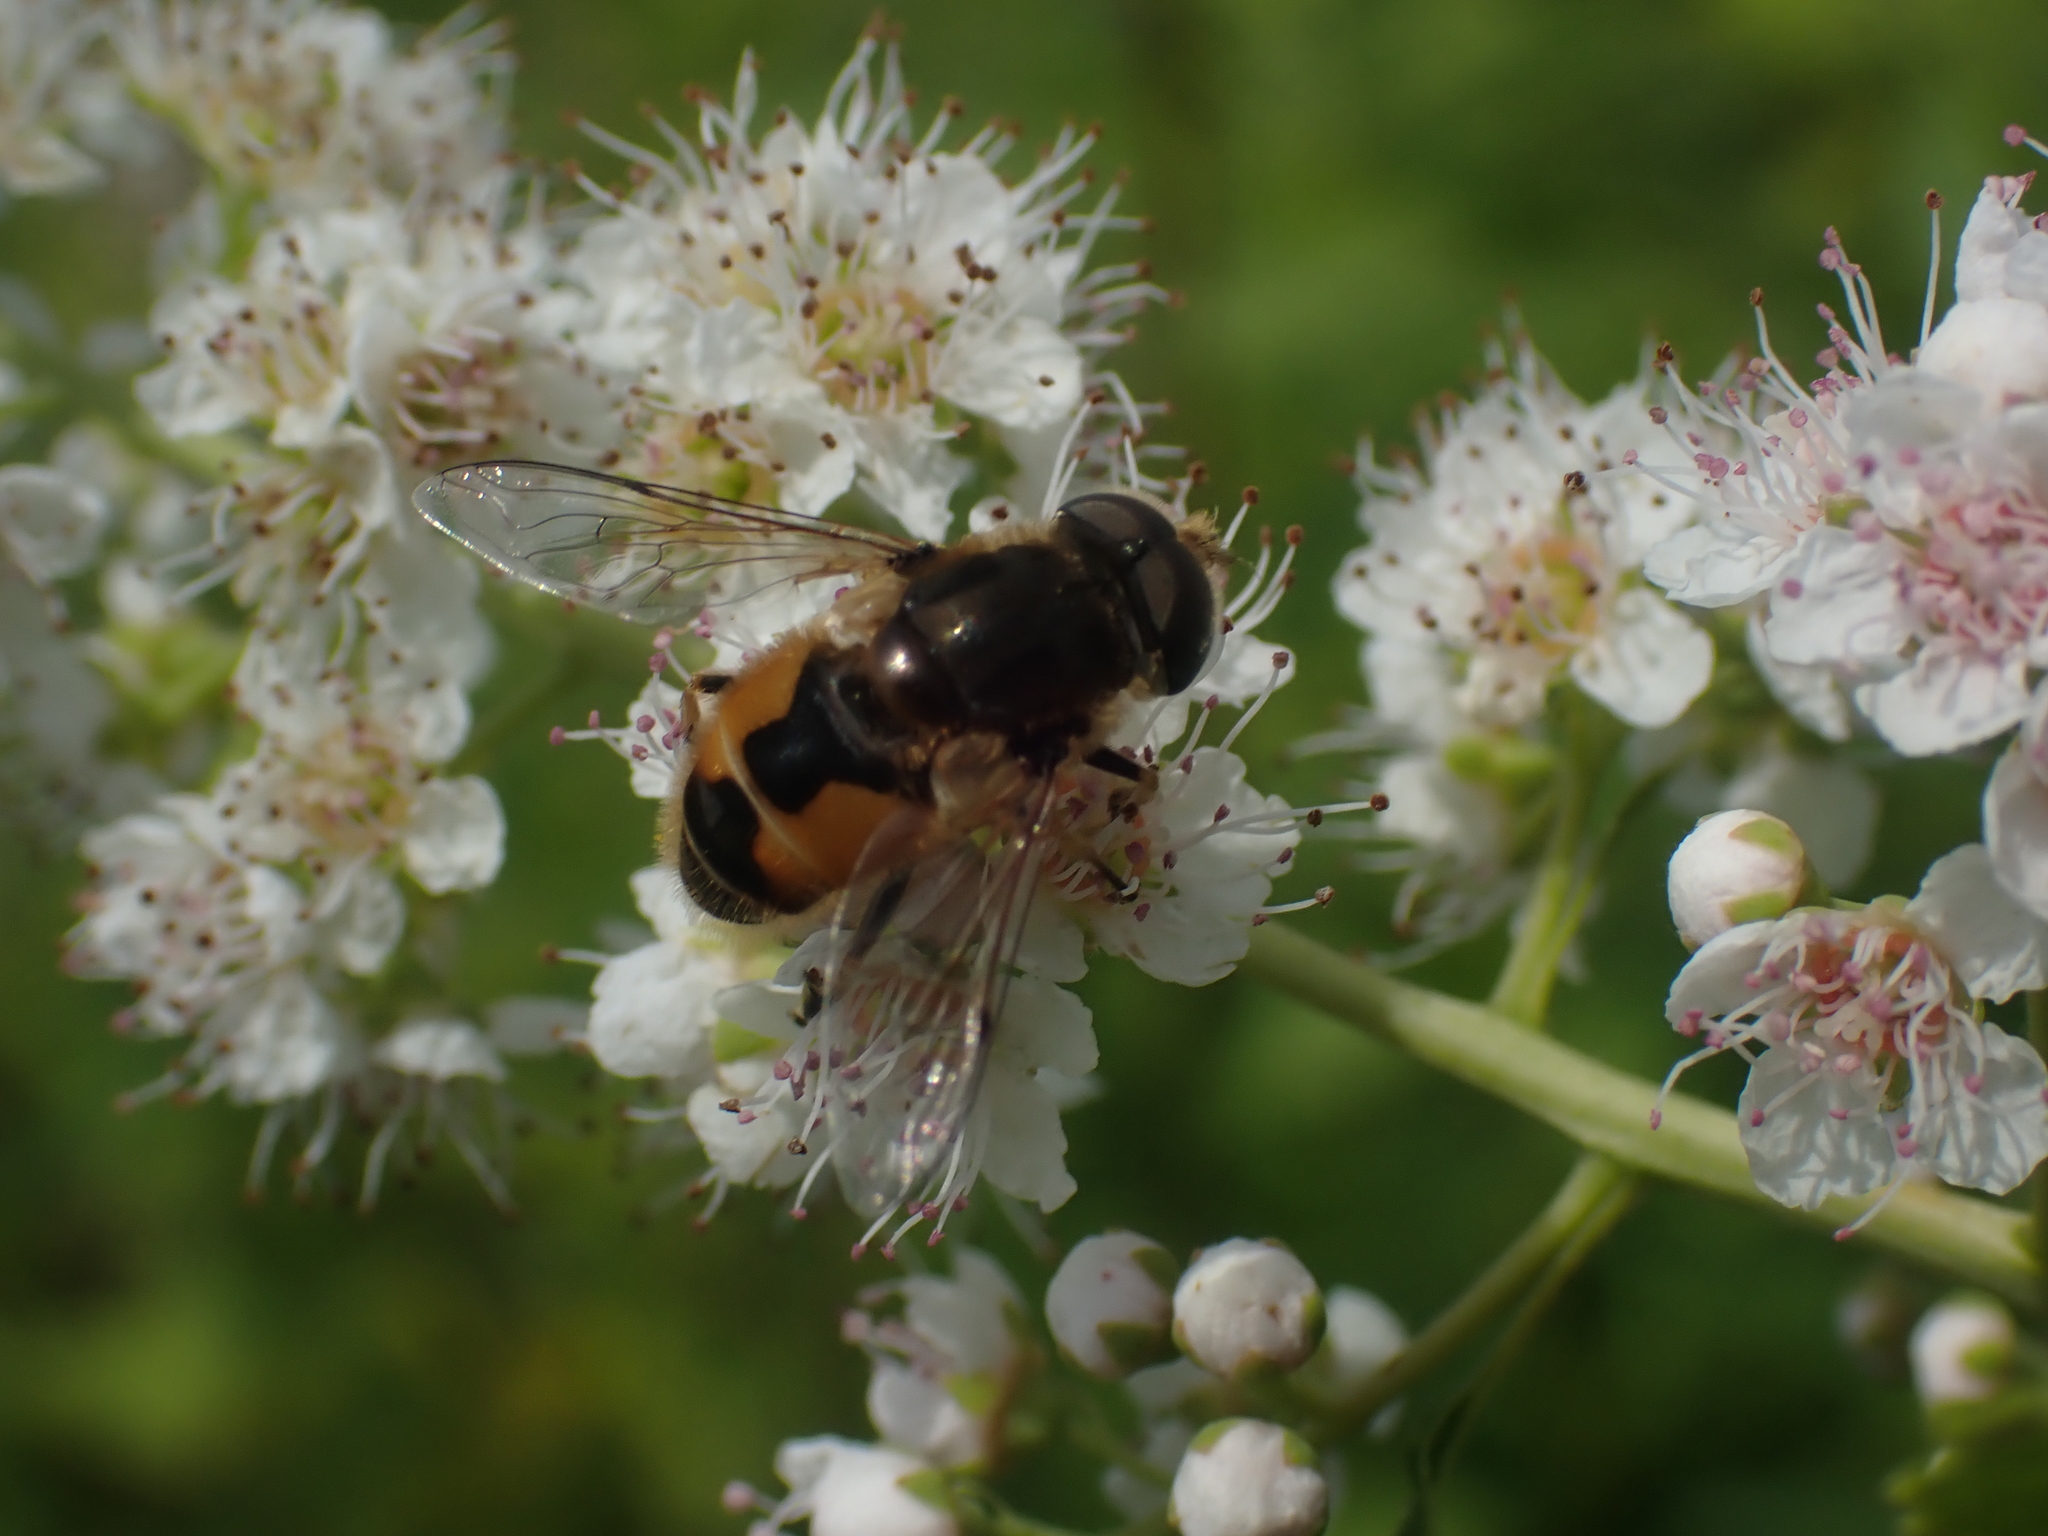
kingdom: Animalia
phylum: Arthropoda
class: Insecta
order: Diptera
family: Syrphidae
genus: Eristalis
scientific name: Eristalis arbustorum
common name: Hover fly
